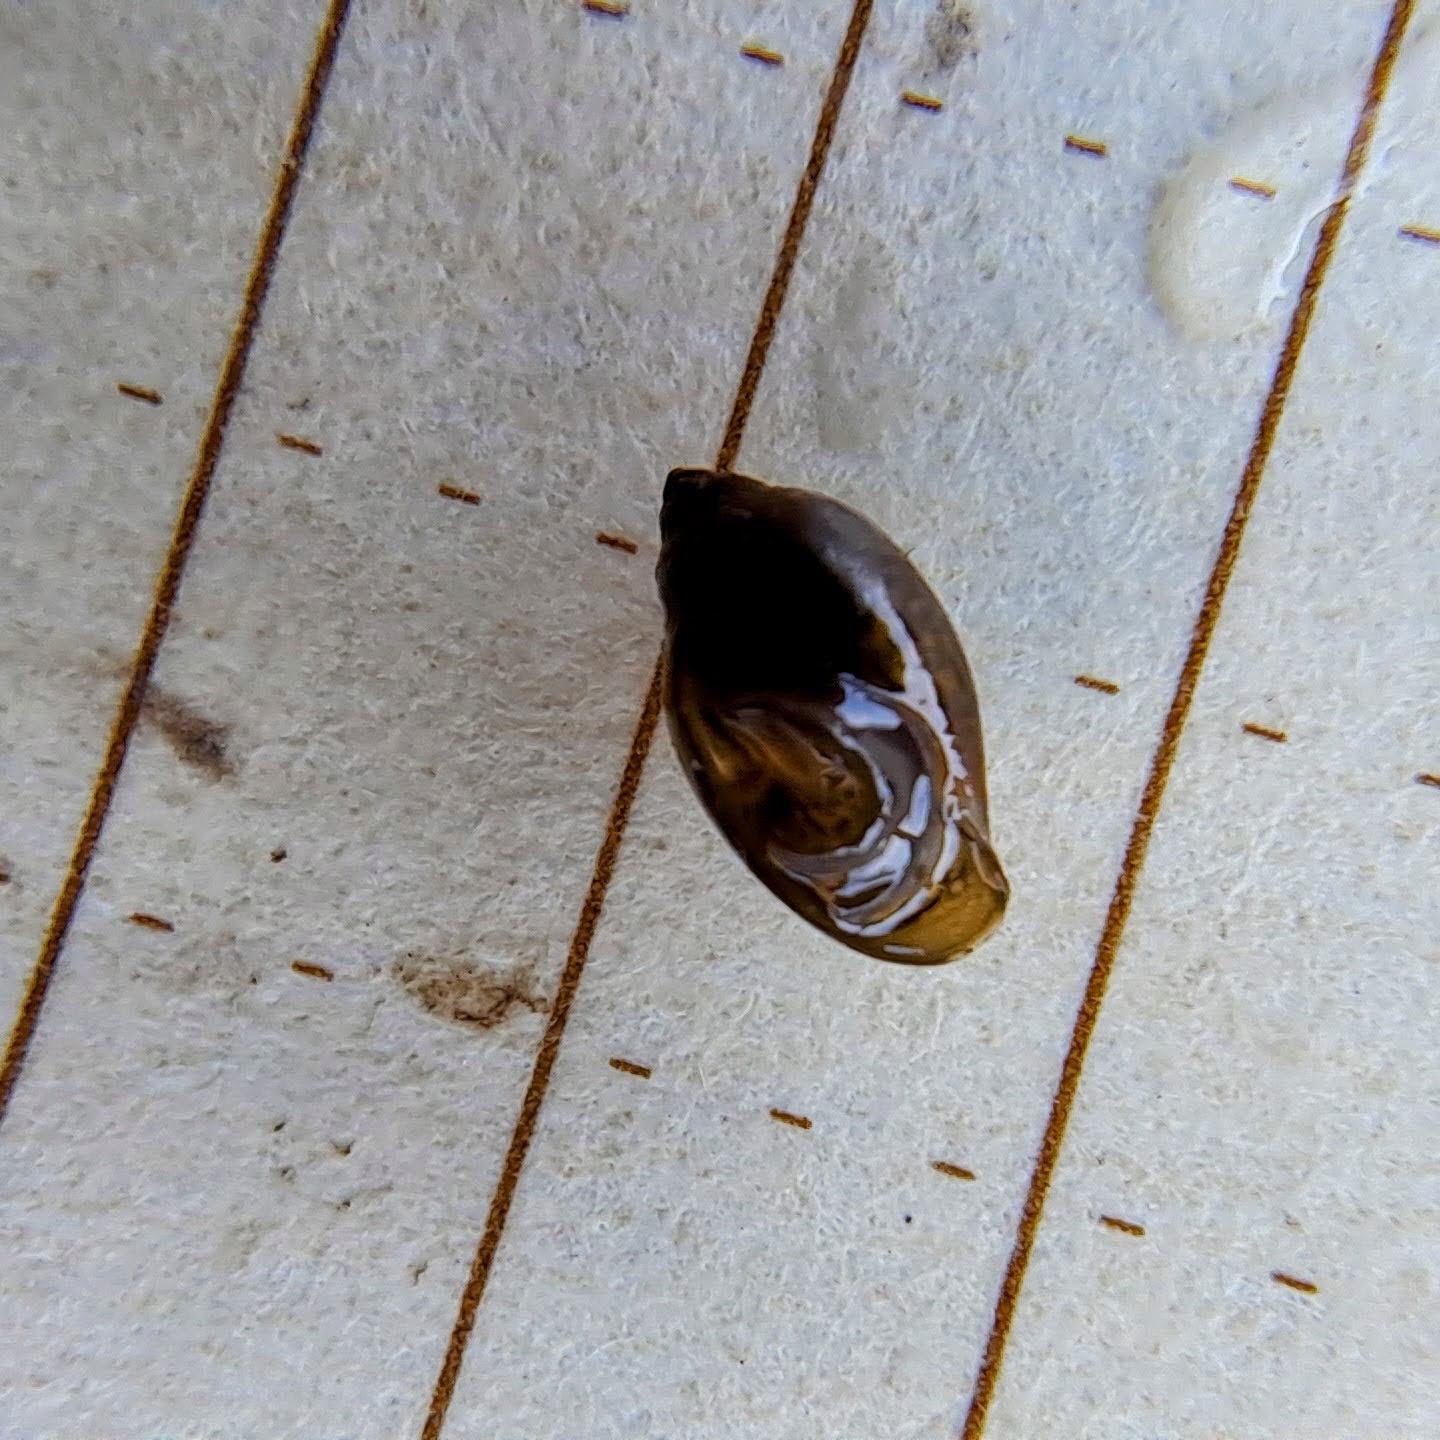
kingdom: Animalia
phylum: Mollusca
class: Gastropoda
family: Physidae
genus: Physella
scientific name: Physella
